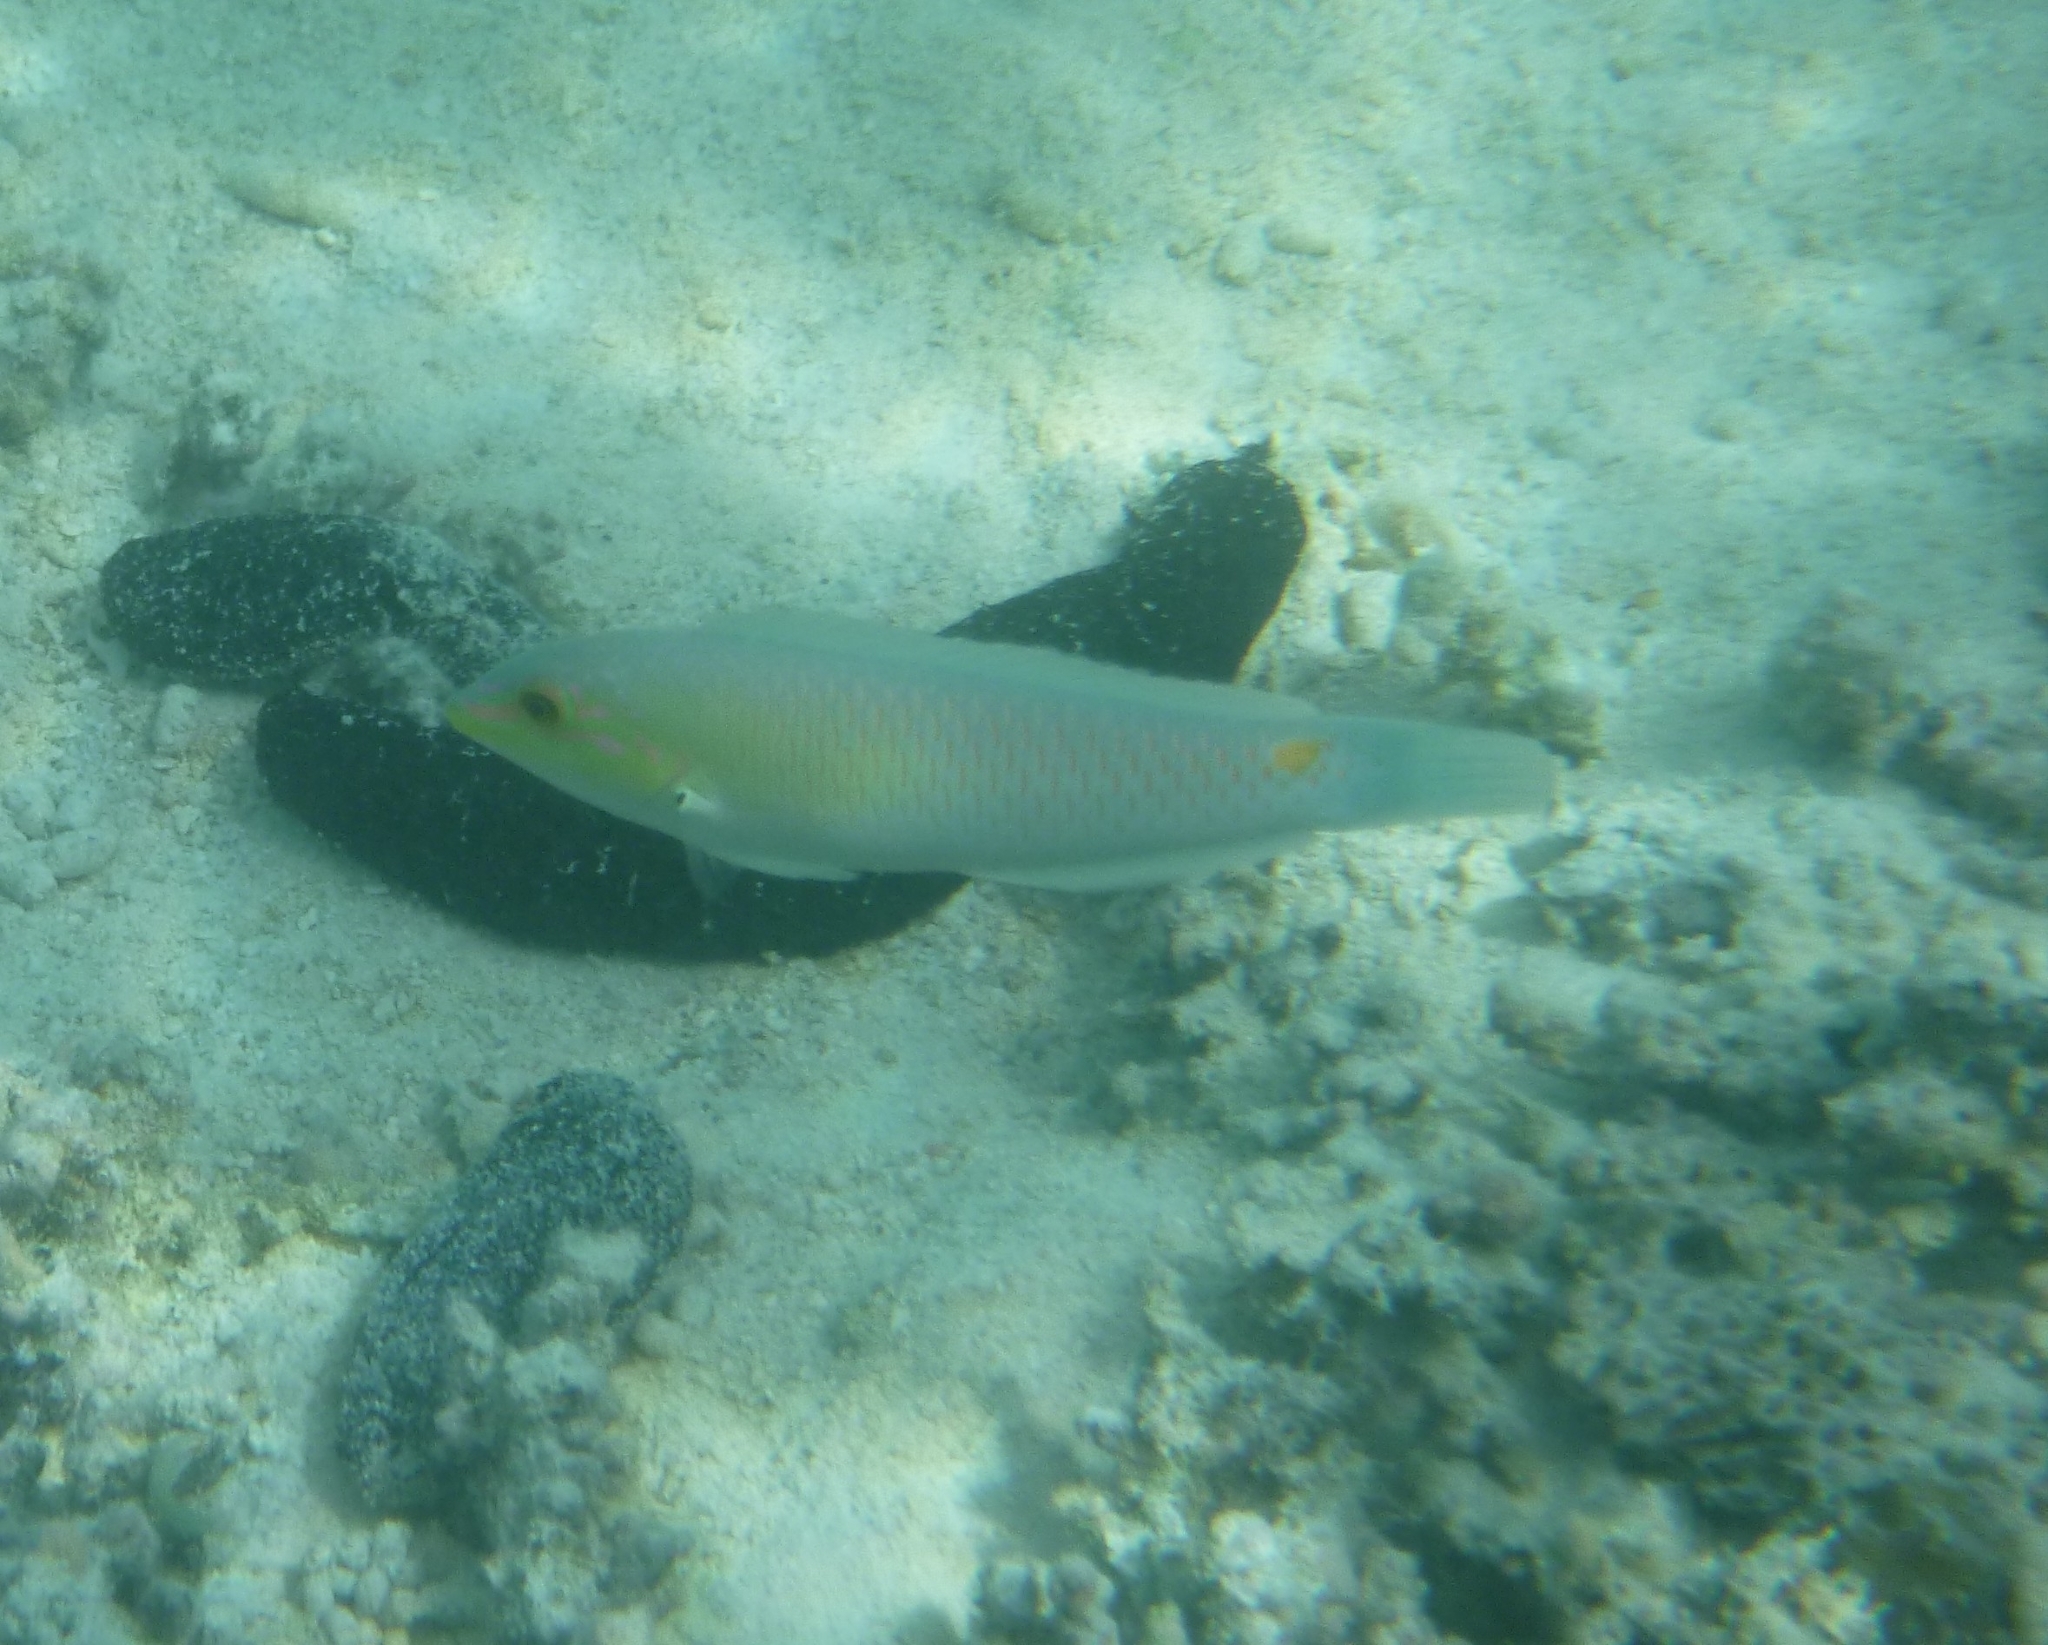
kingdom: Animalia
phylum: Chordata
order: Perciformes
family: Labridae
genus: Halichoeres
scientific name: Halichoeres trimaculatus
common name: Three-spot wrasse
